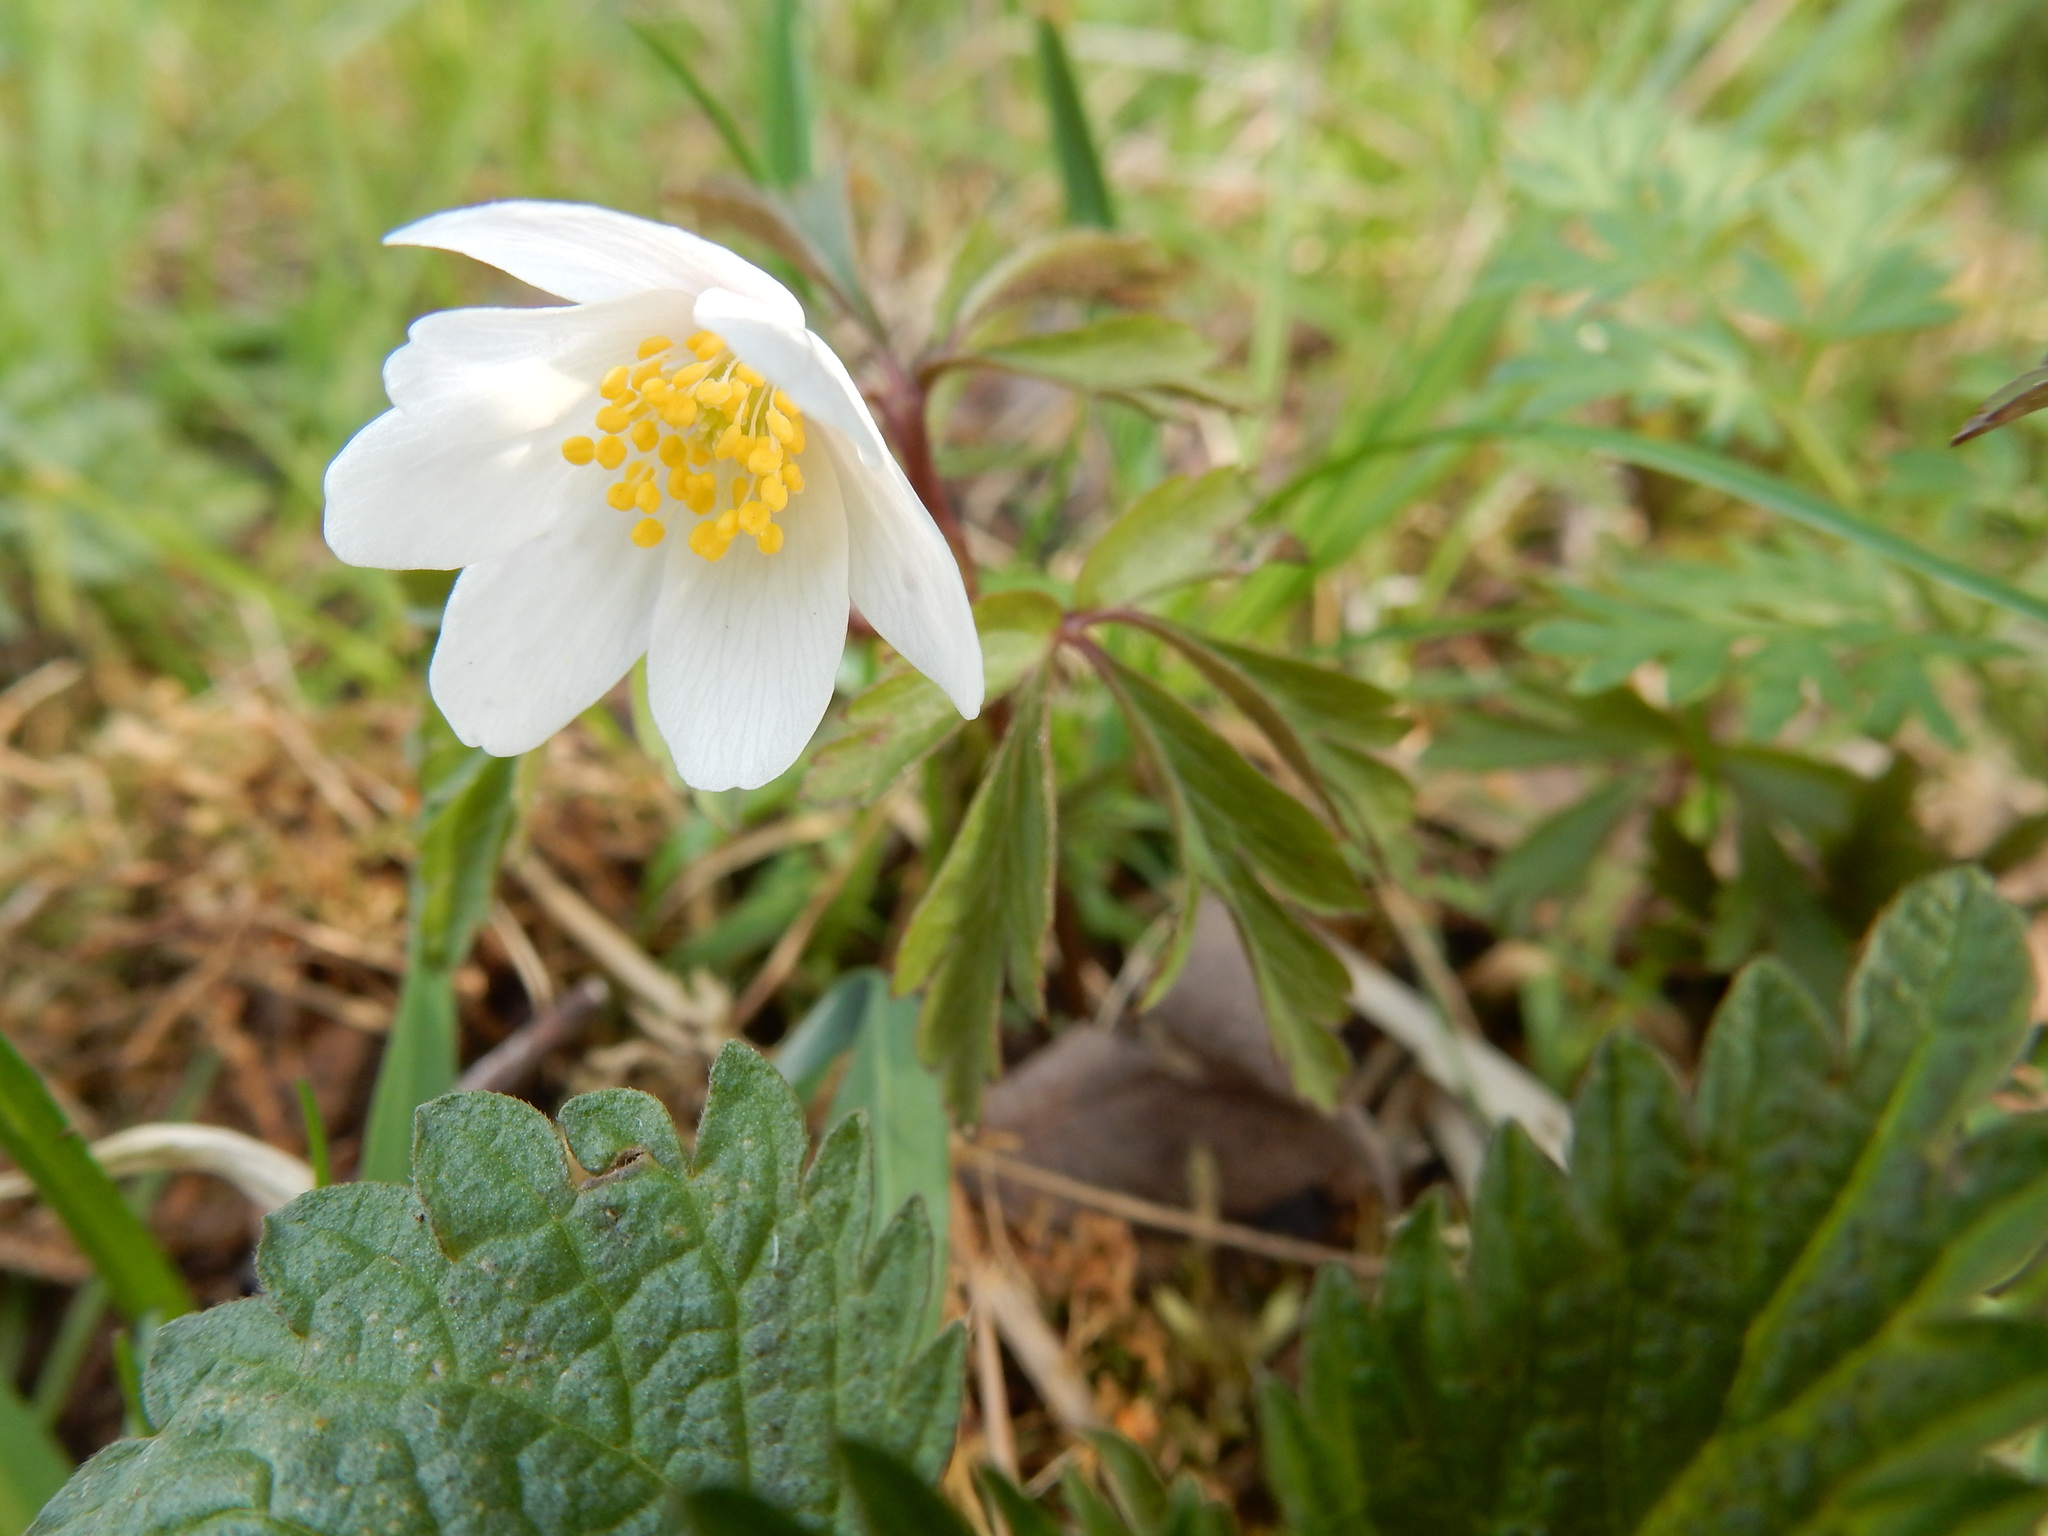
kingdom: Plantae
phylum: Tracheophyta
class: Magnoliopsida
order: Ranunculales
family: Ranunculaceae
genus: Anemone
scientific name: Anemone nemorosa
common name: Wood anemone
